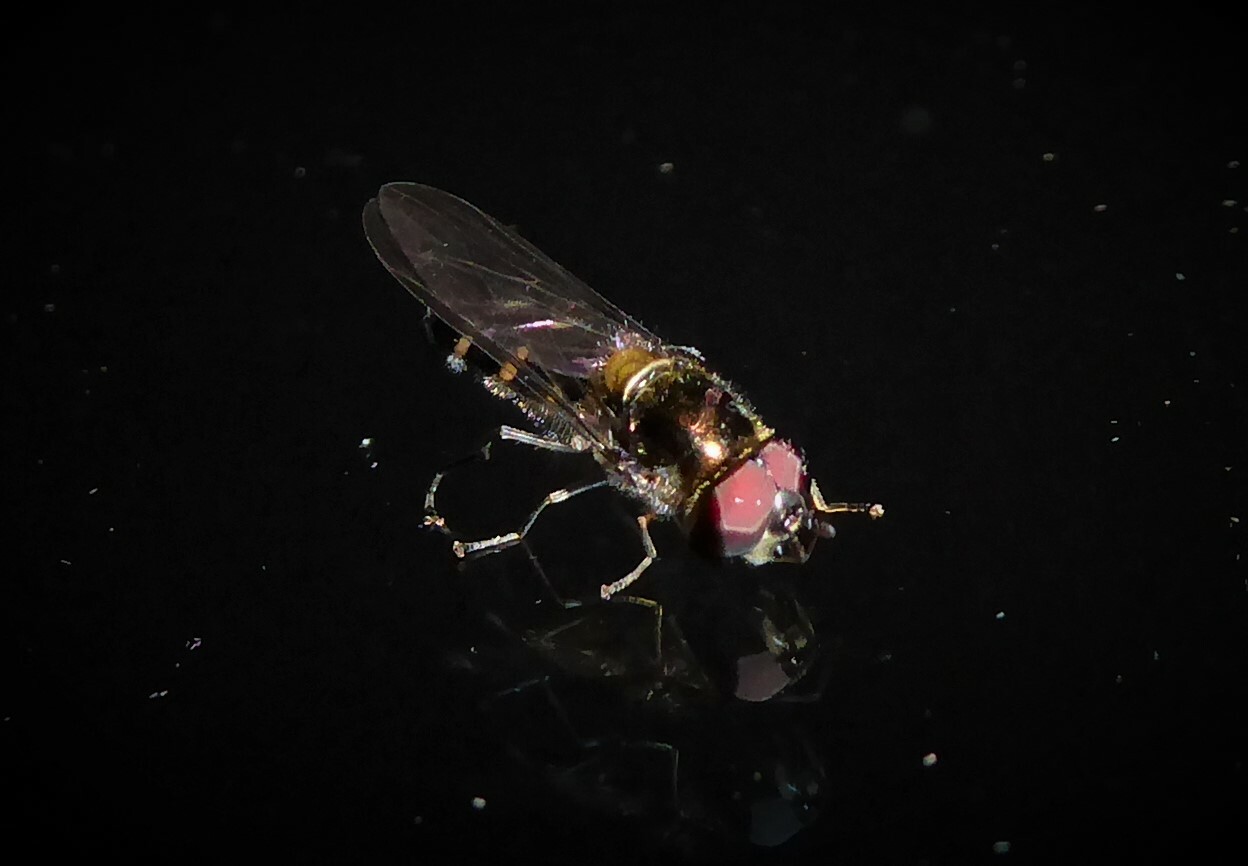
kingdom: Animalia
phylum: Arthropoda
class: Insecta
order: Diptera
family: Syrphidae
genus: Melangyna
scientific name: Melangyna novaezelandiae
